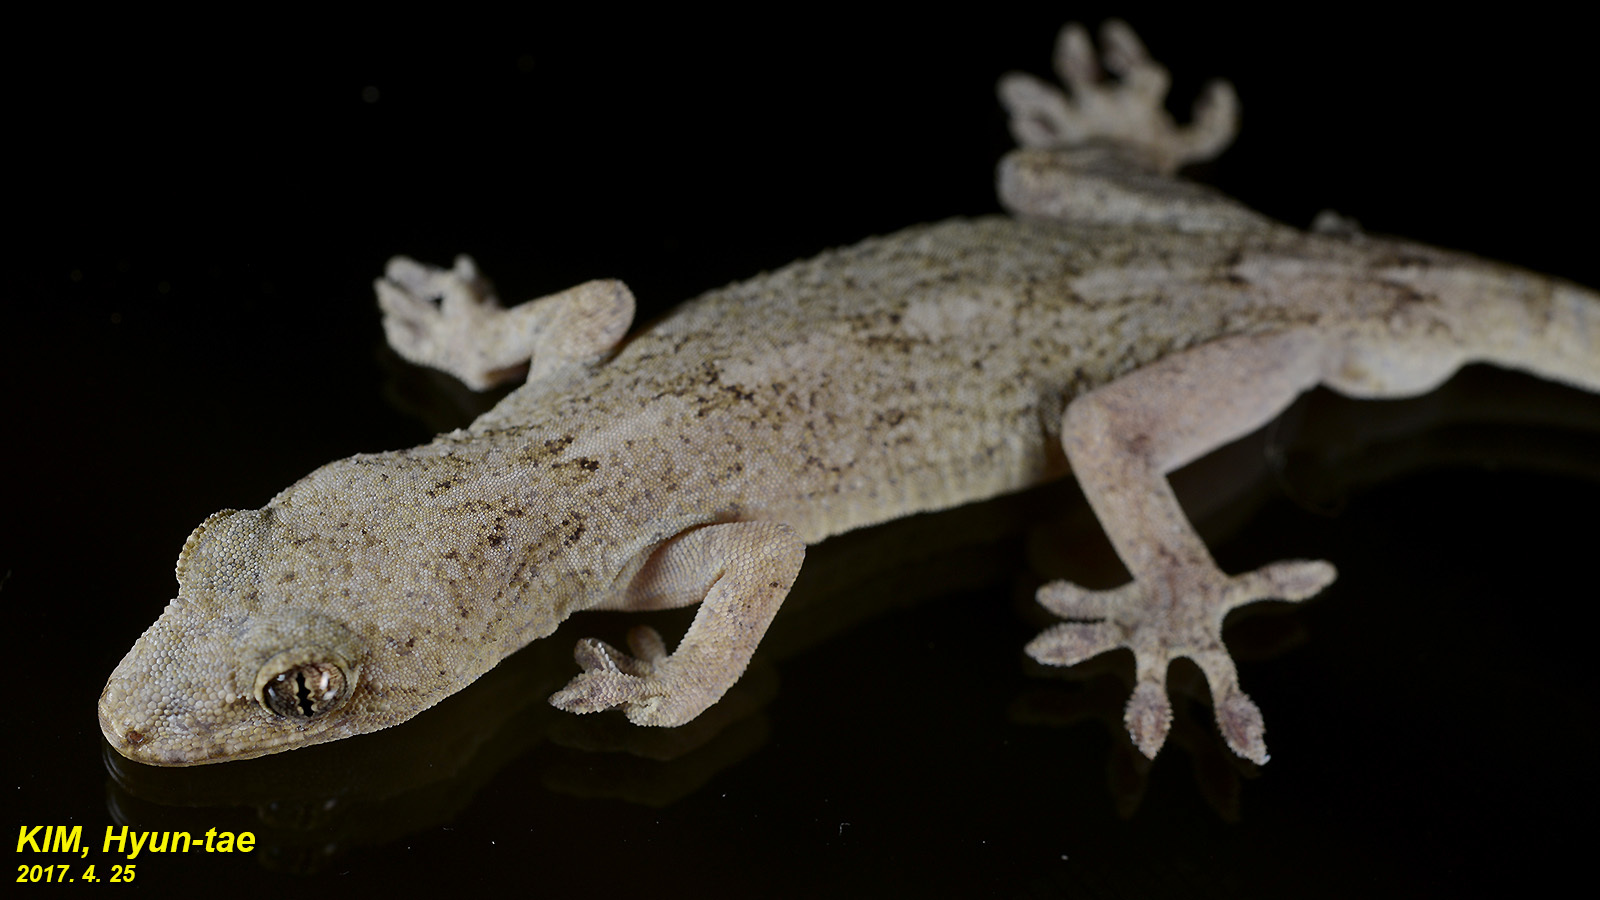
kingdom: Animalia
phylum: Chordata
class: Squamata
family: Gekkonidae
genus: Gekko
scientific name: Gekko japonicus
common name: Schlegel's japanese gecko
